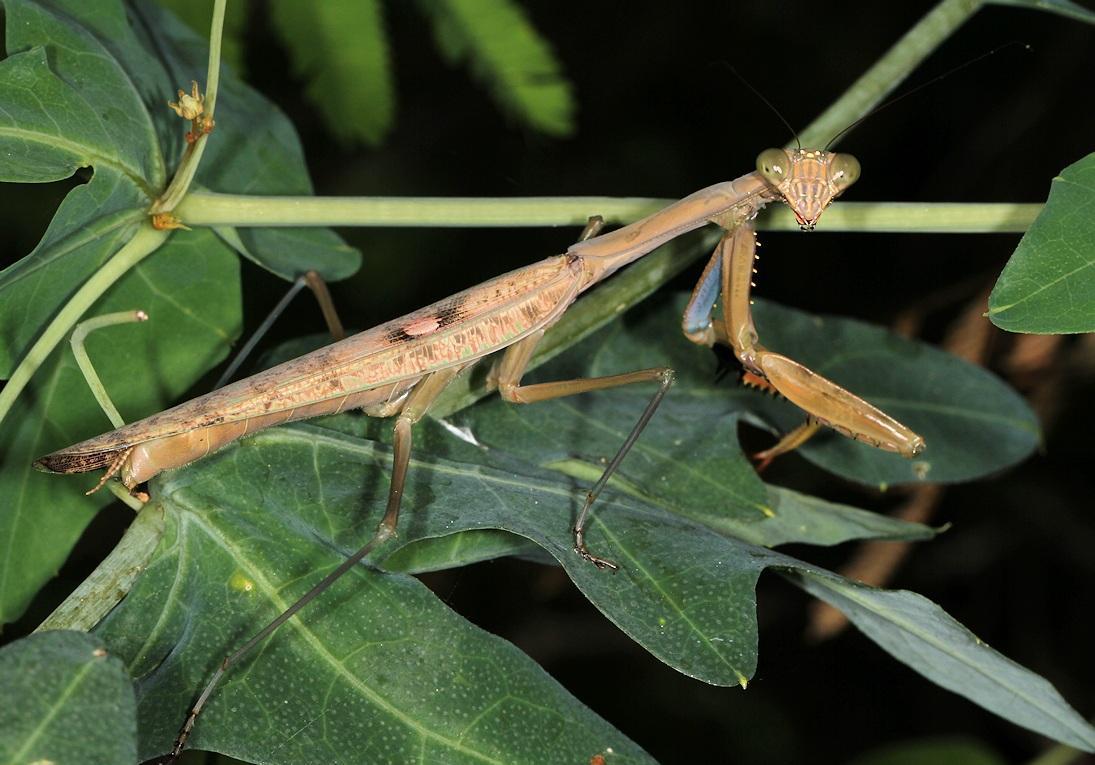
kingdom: Animalia
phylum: Arthropoda
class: Insecta
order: Mantodea
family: Mantidae
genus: Polyspilota
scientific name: Polyspilota aeruginosa
